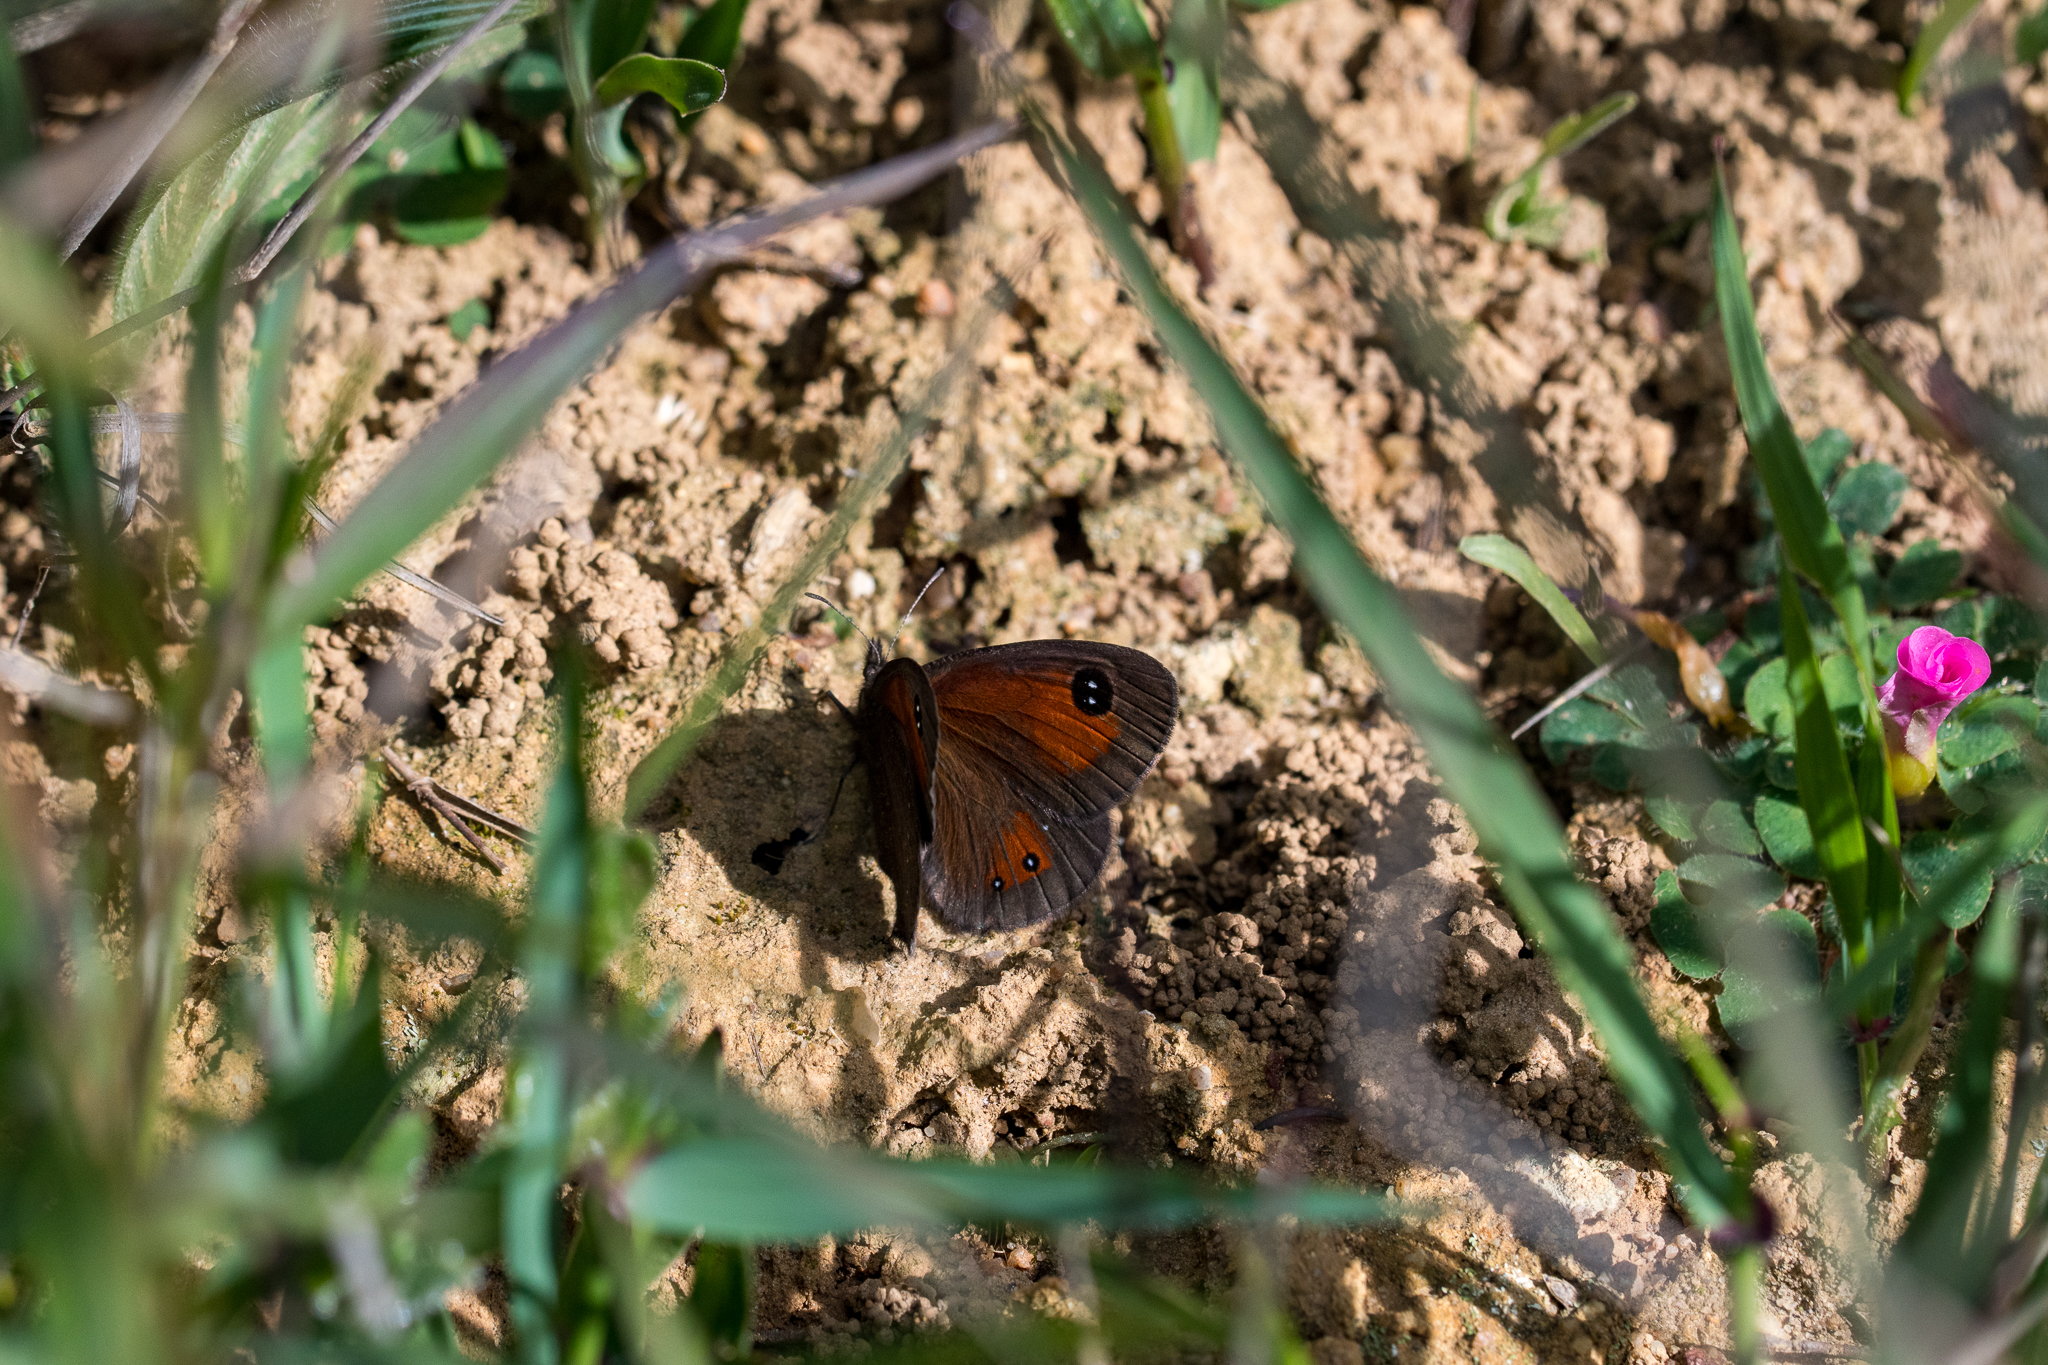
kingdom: Animalia
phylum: Arthropoda
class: Insecta
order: Lepidoptera
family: Nymphalidae
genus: Pseudonympha
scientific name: Pseudonympha magus
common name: Silver-bottom brown
